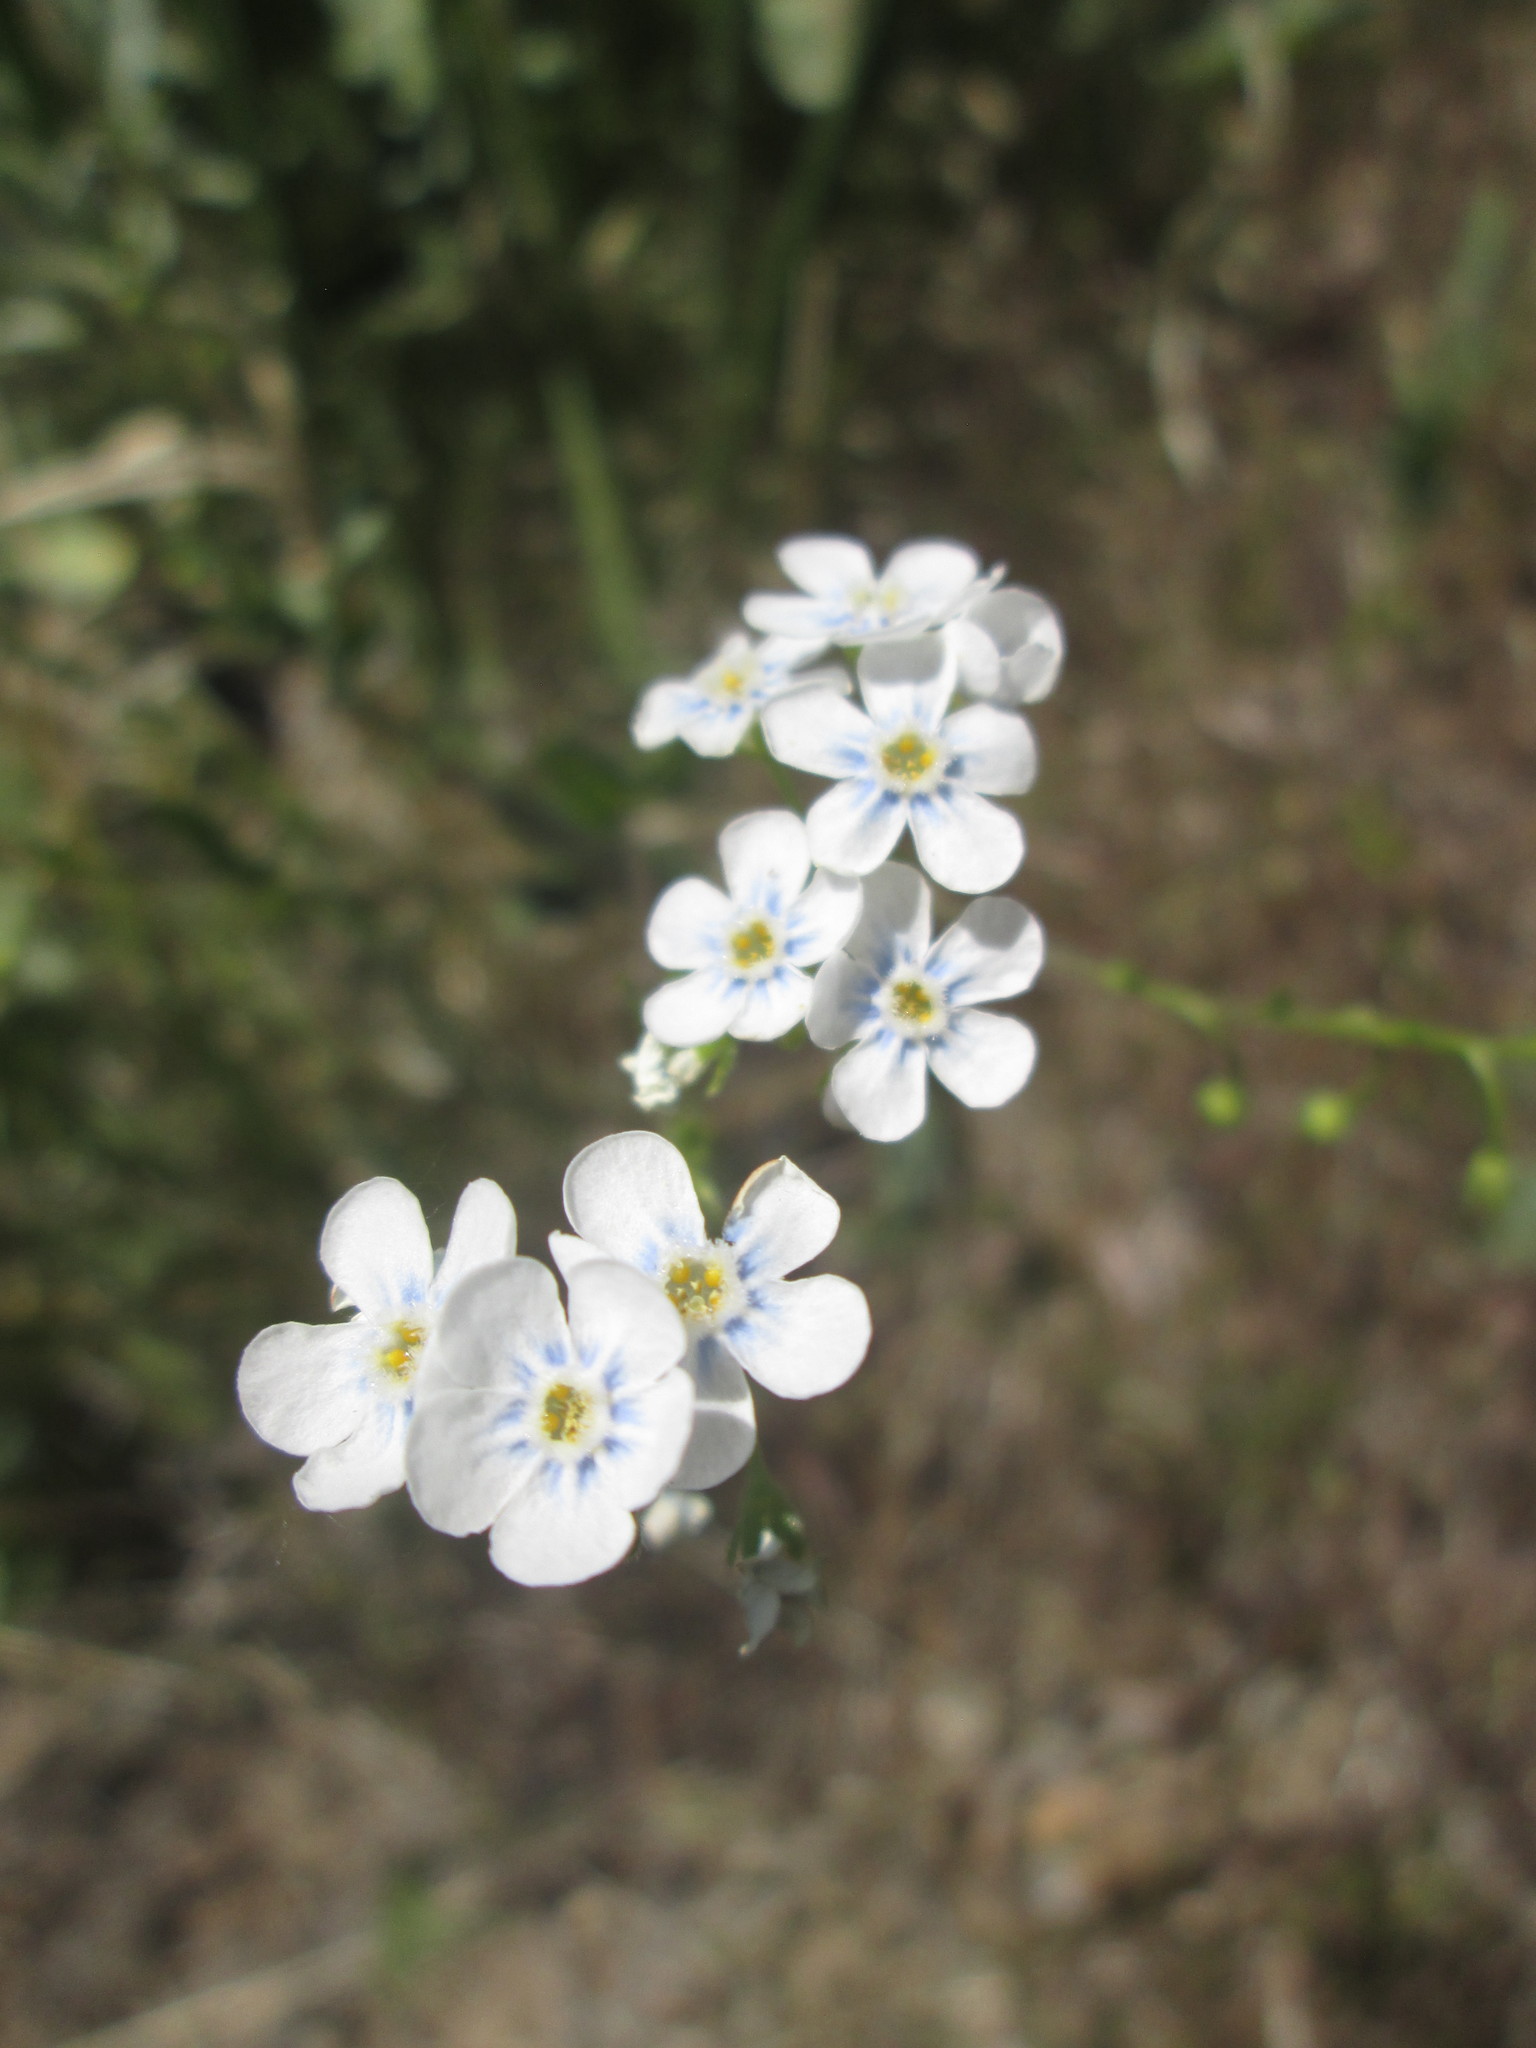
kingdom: Plantae
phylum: Tracheophyta
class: Magnoliopsida
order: Boraginales
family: Boraginaceae
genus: Hackelia
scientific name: Hackelia patens
